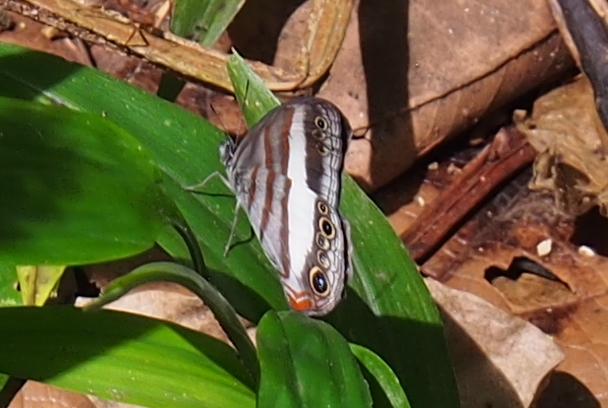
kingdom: Animalia
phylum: Arthropoda
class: Insecta
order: Lepidoptera
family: Nymphalidae
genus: Pareuptychia
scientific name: Pareuptychia metaleuca
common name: White-banded satyr
